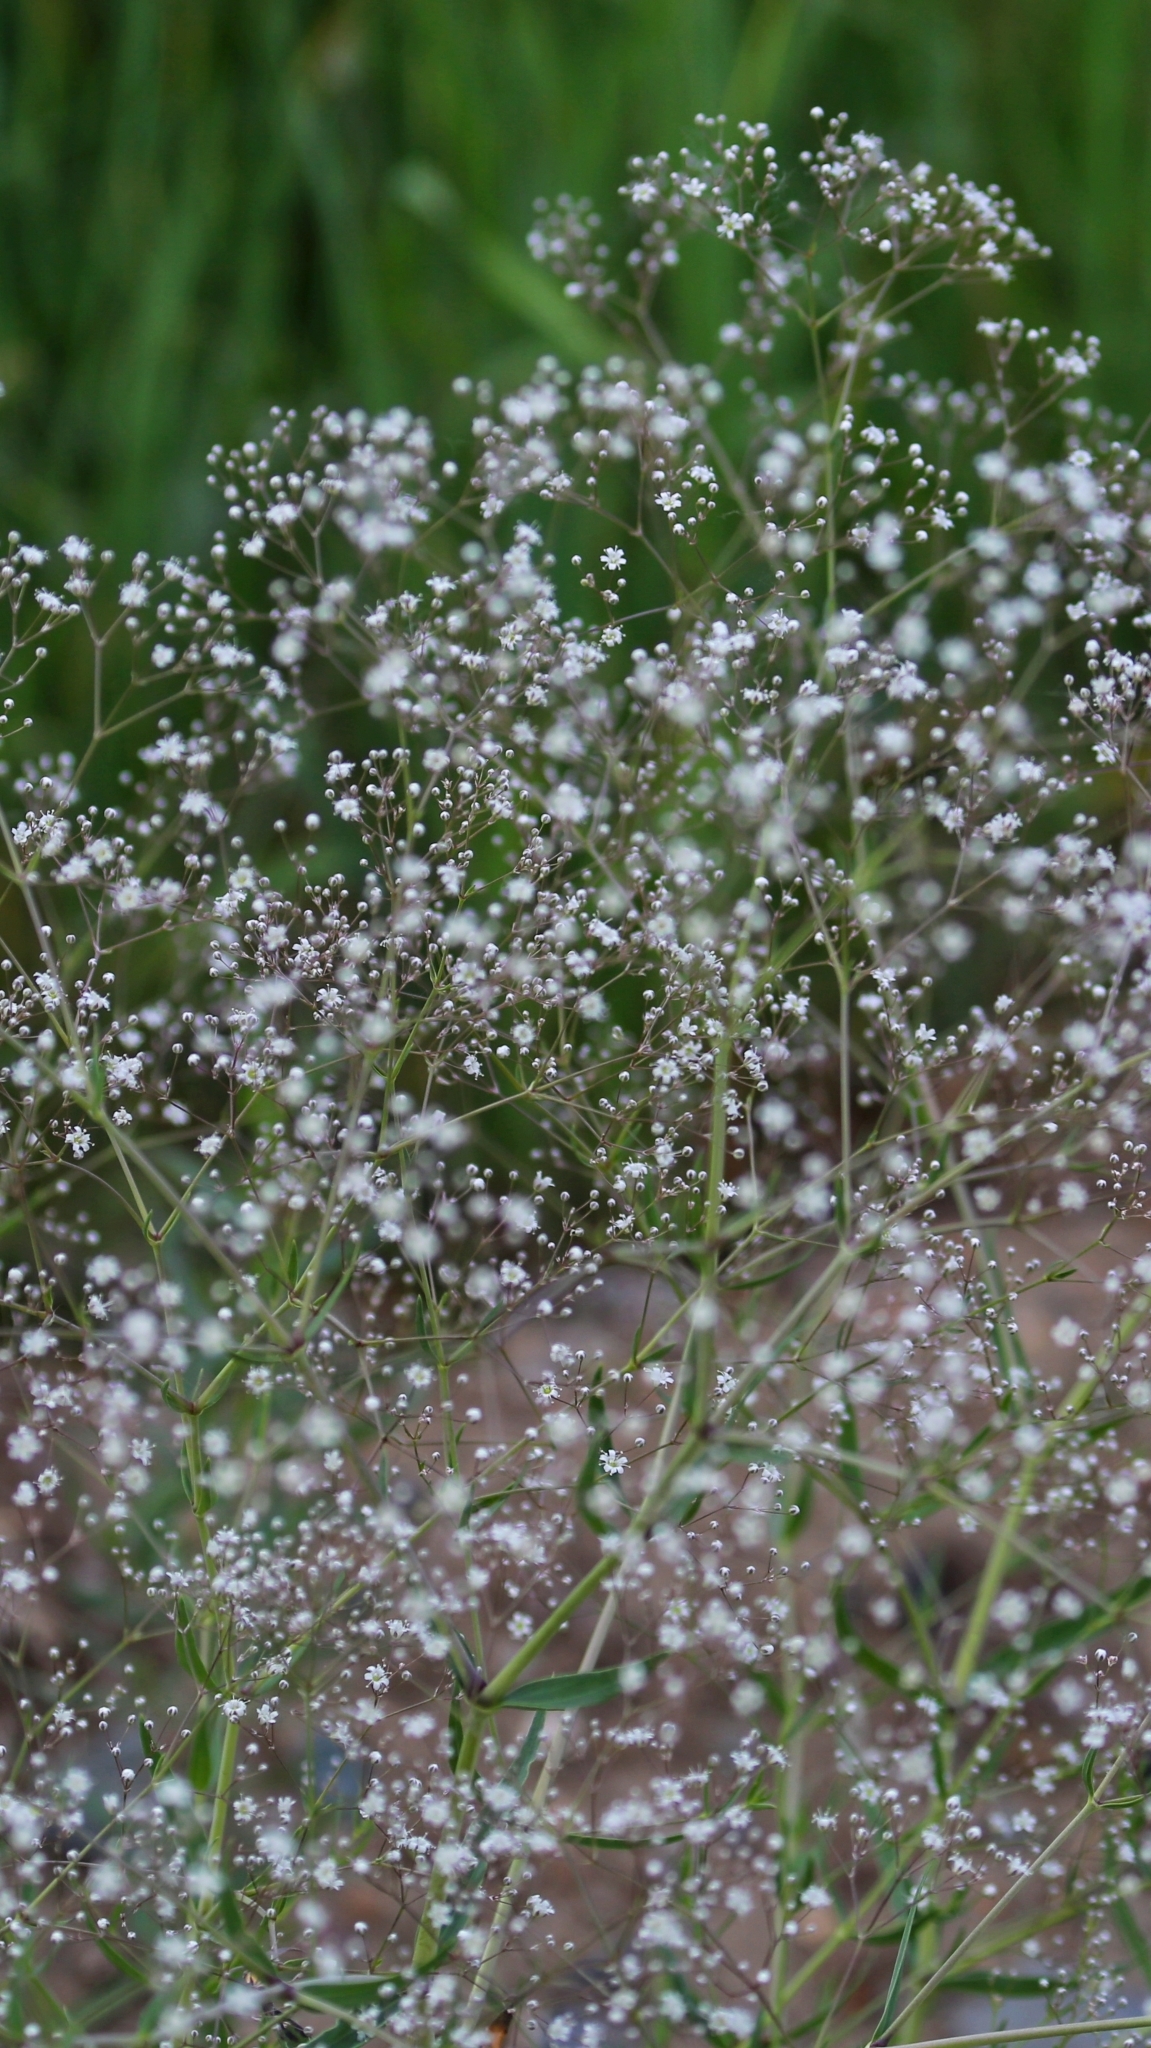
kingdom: Plantae
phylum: Tracheophyta
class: Magnoliopsida
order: Caryophyllales
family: Caryophyllaceae
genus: Gypsophila
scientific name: Gypsophila paniculata
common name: Baby's-breath
